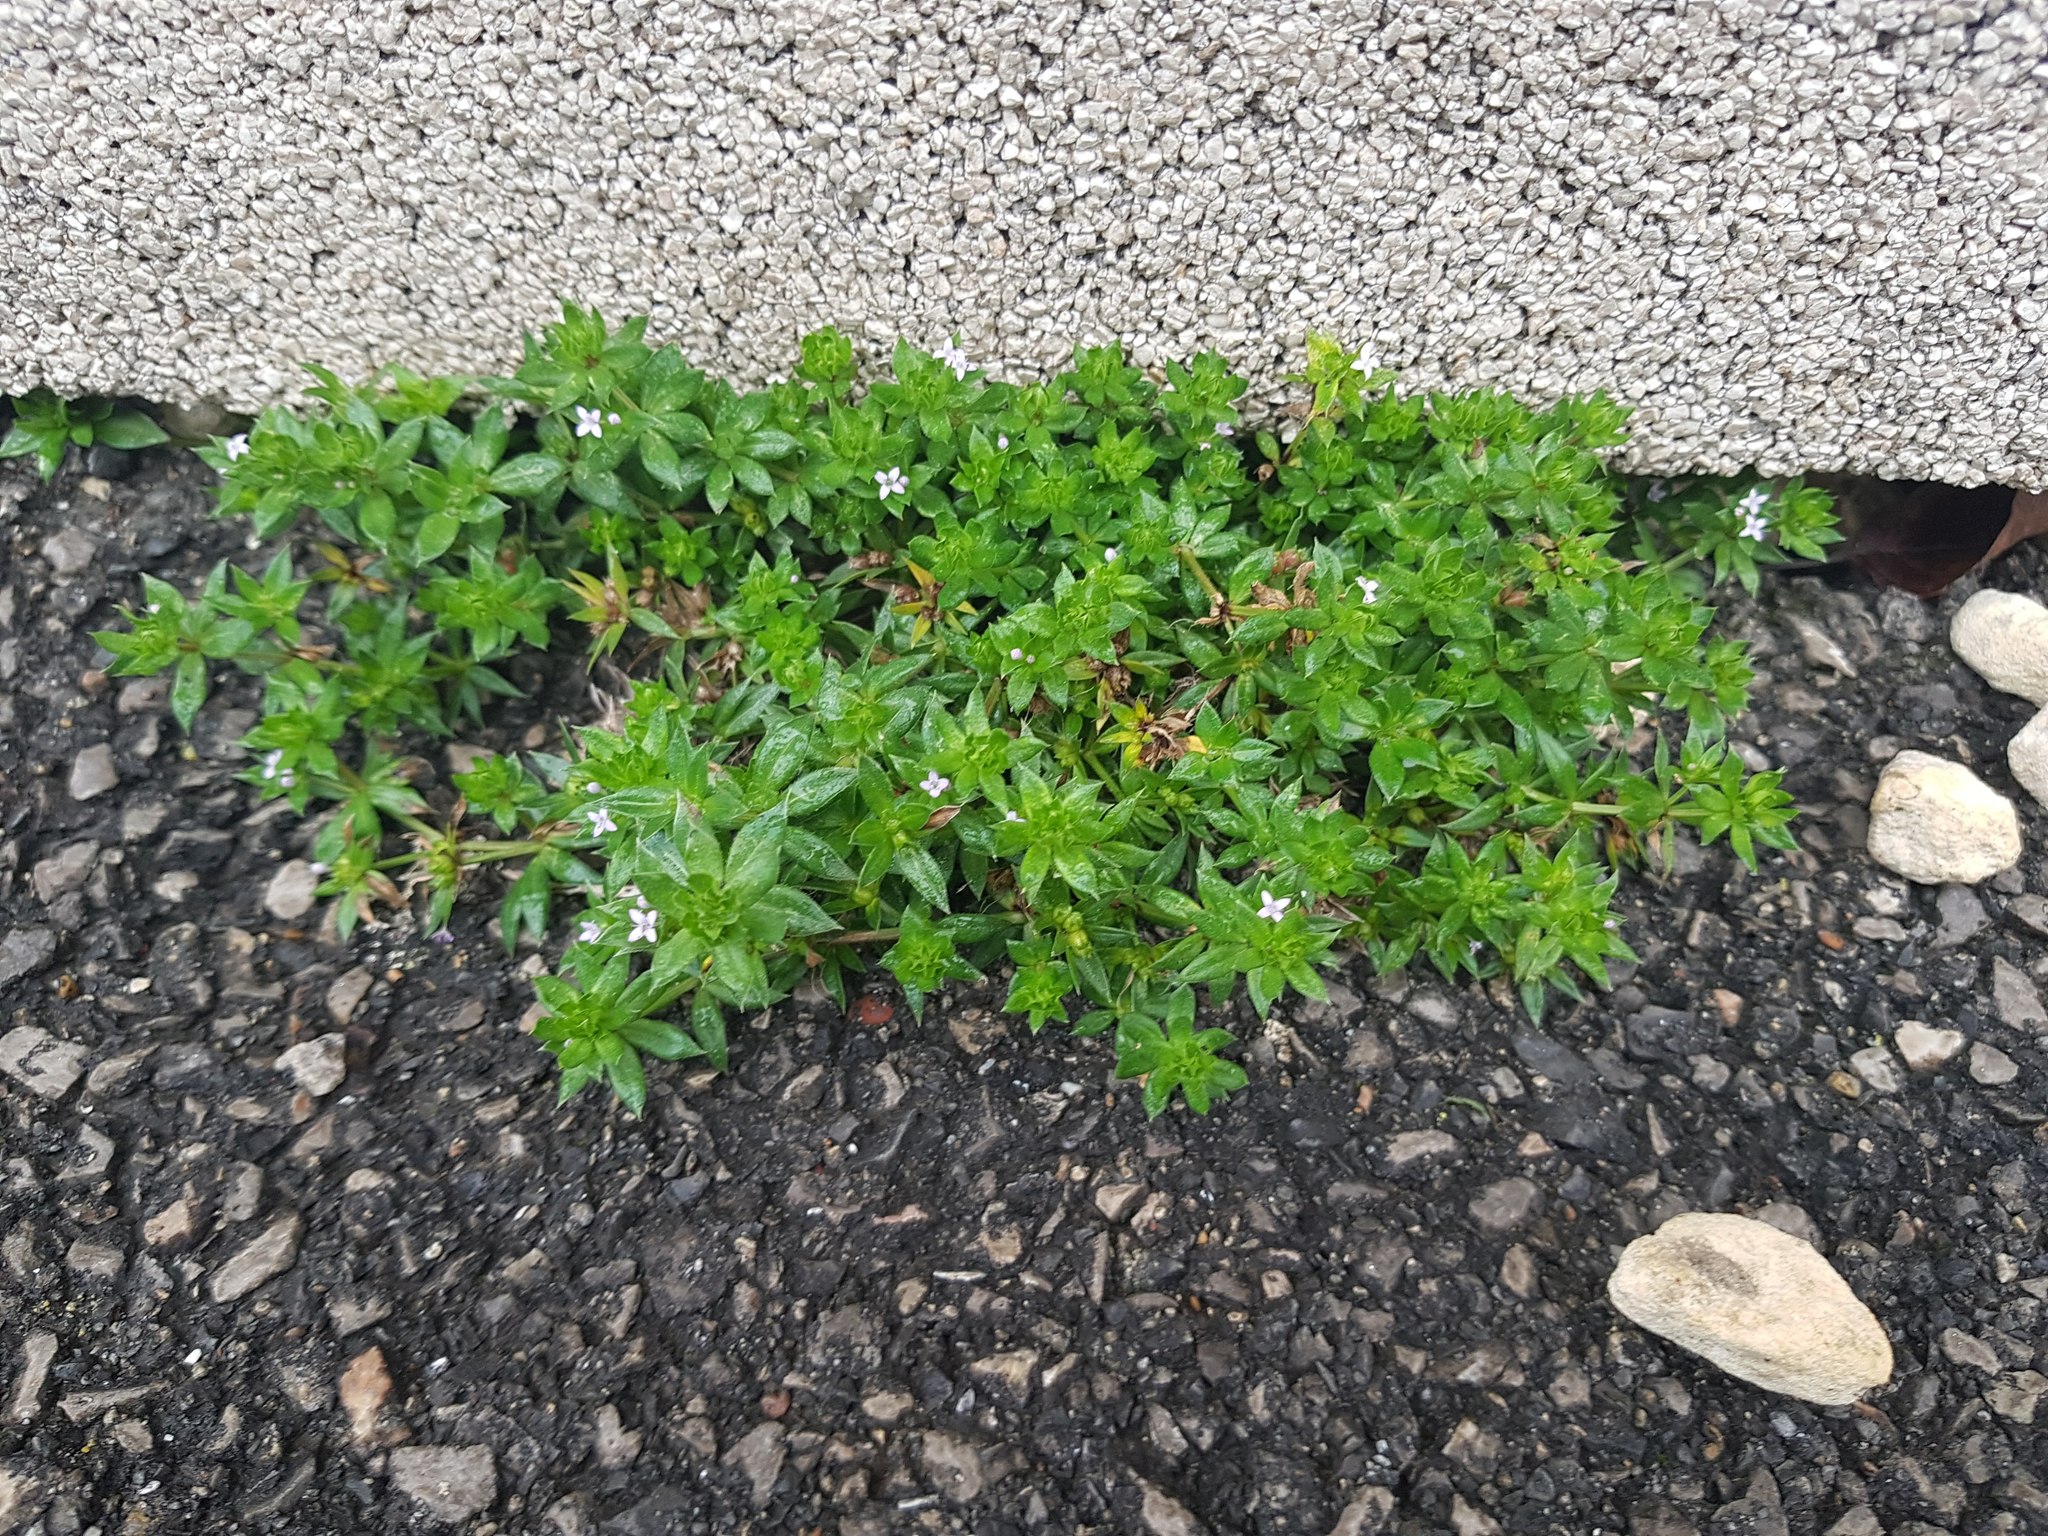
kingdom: Plantae
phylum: Tracheophyta
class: Magnoliopsida
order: Gentianales
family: Rubiaceae
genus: Sherardia
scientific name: Sherardia arvensis
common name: Field madder
